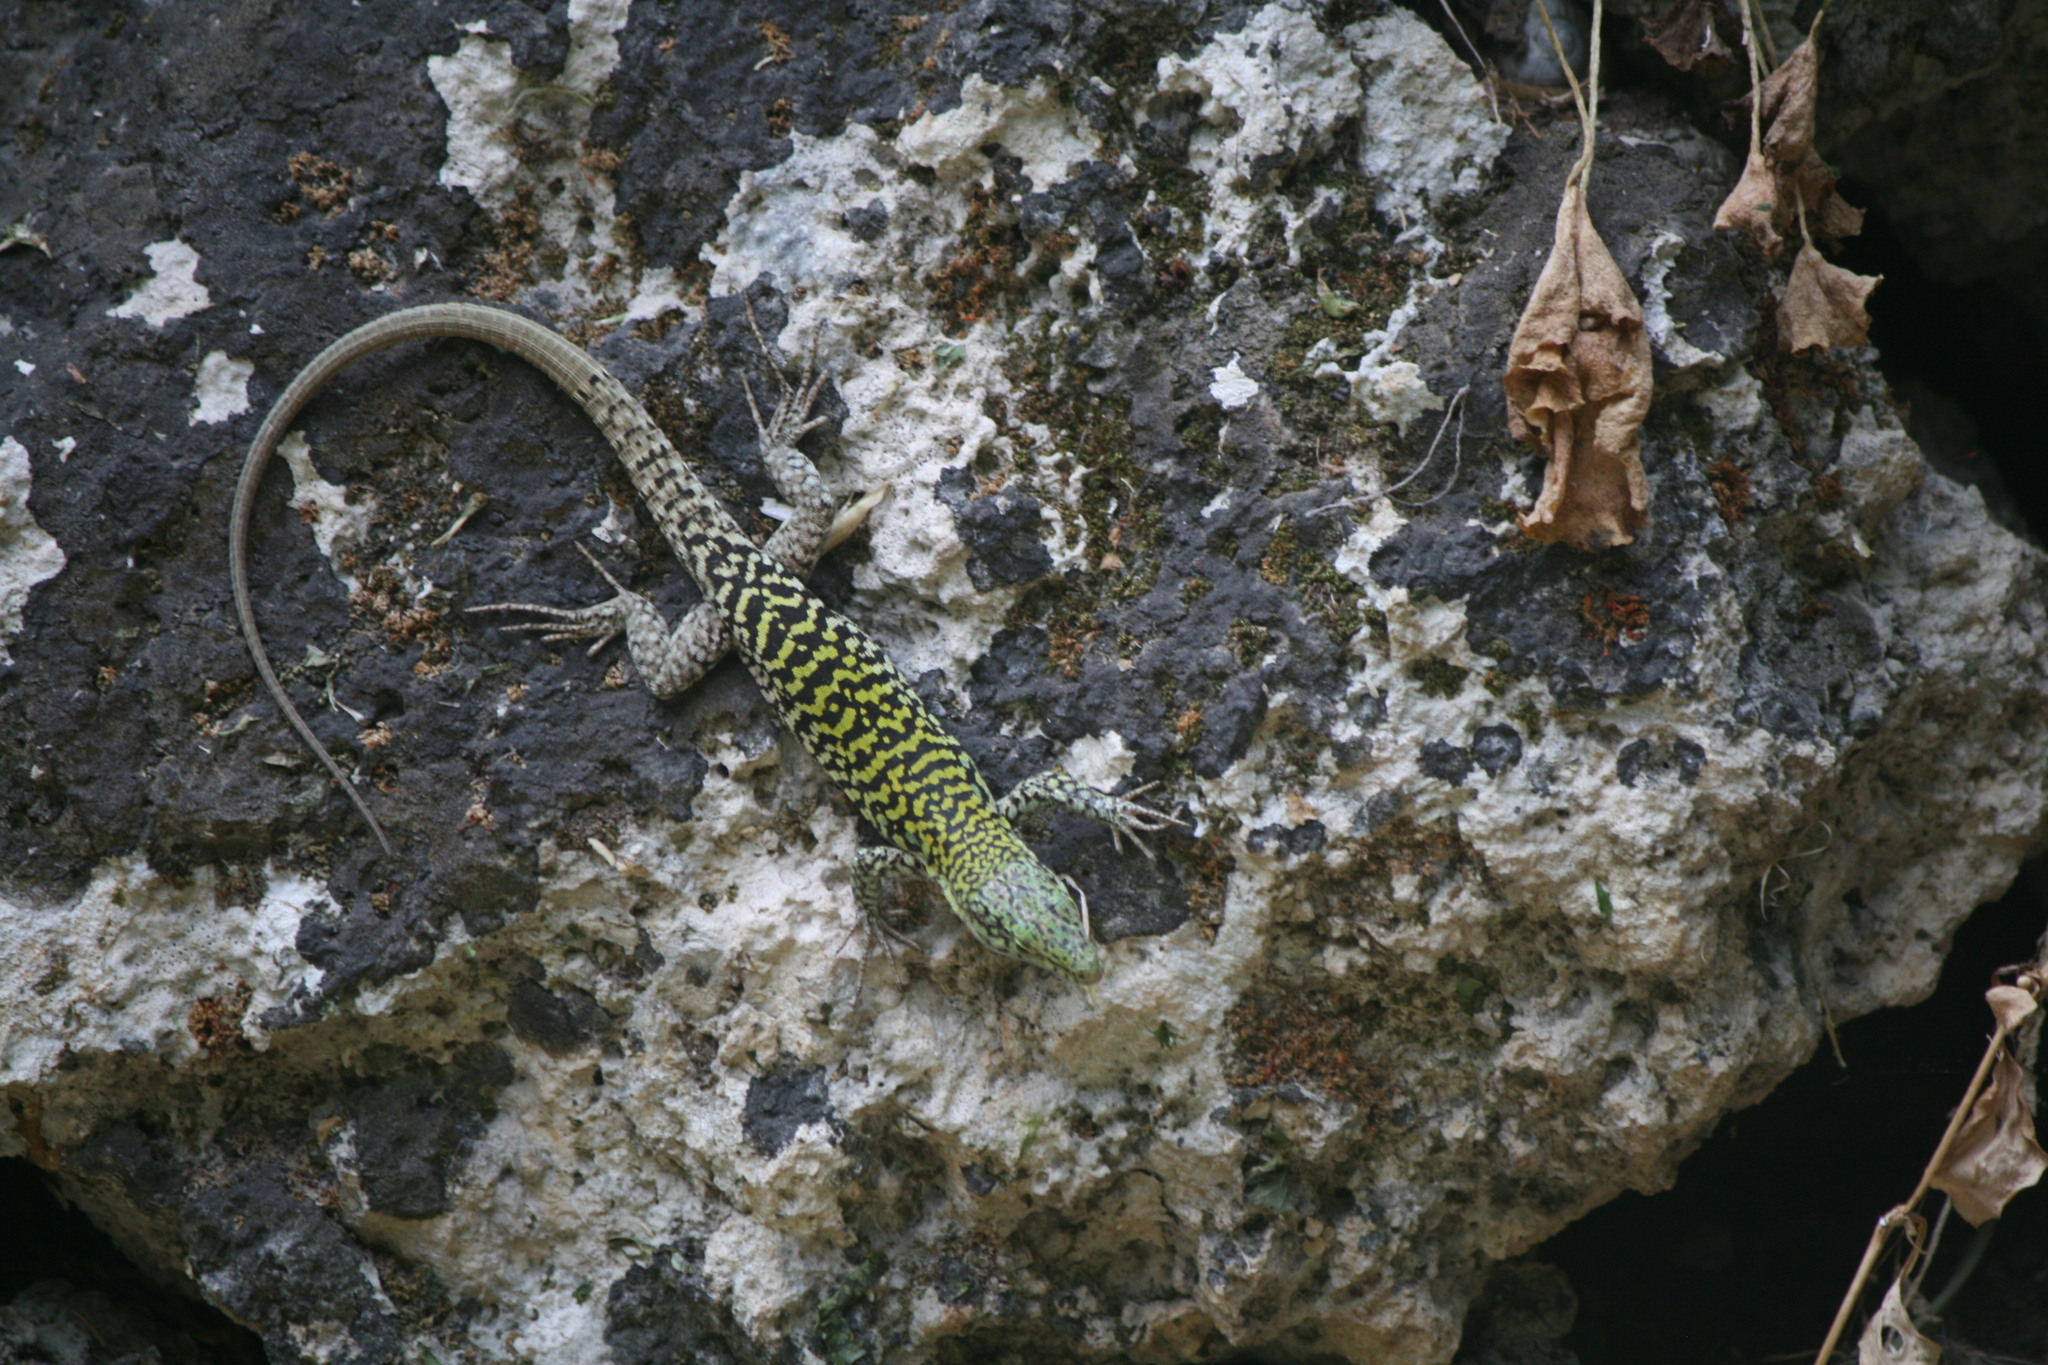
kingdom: Animalia
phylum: Chordata
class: Squamata
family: Lacertidae
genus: Podarcis
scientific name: Podarcis siculus
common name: Italian wall lizard
